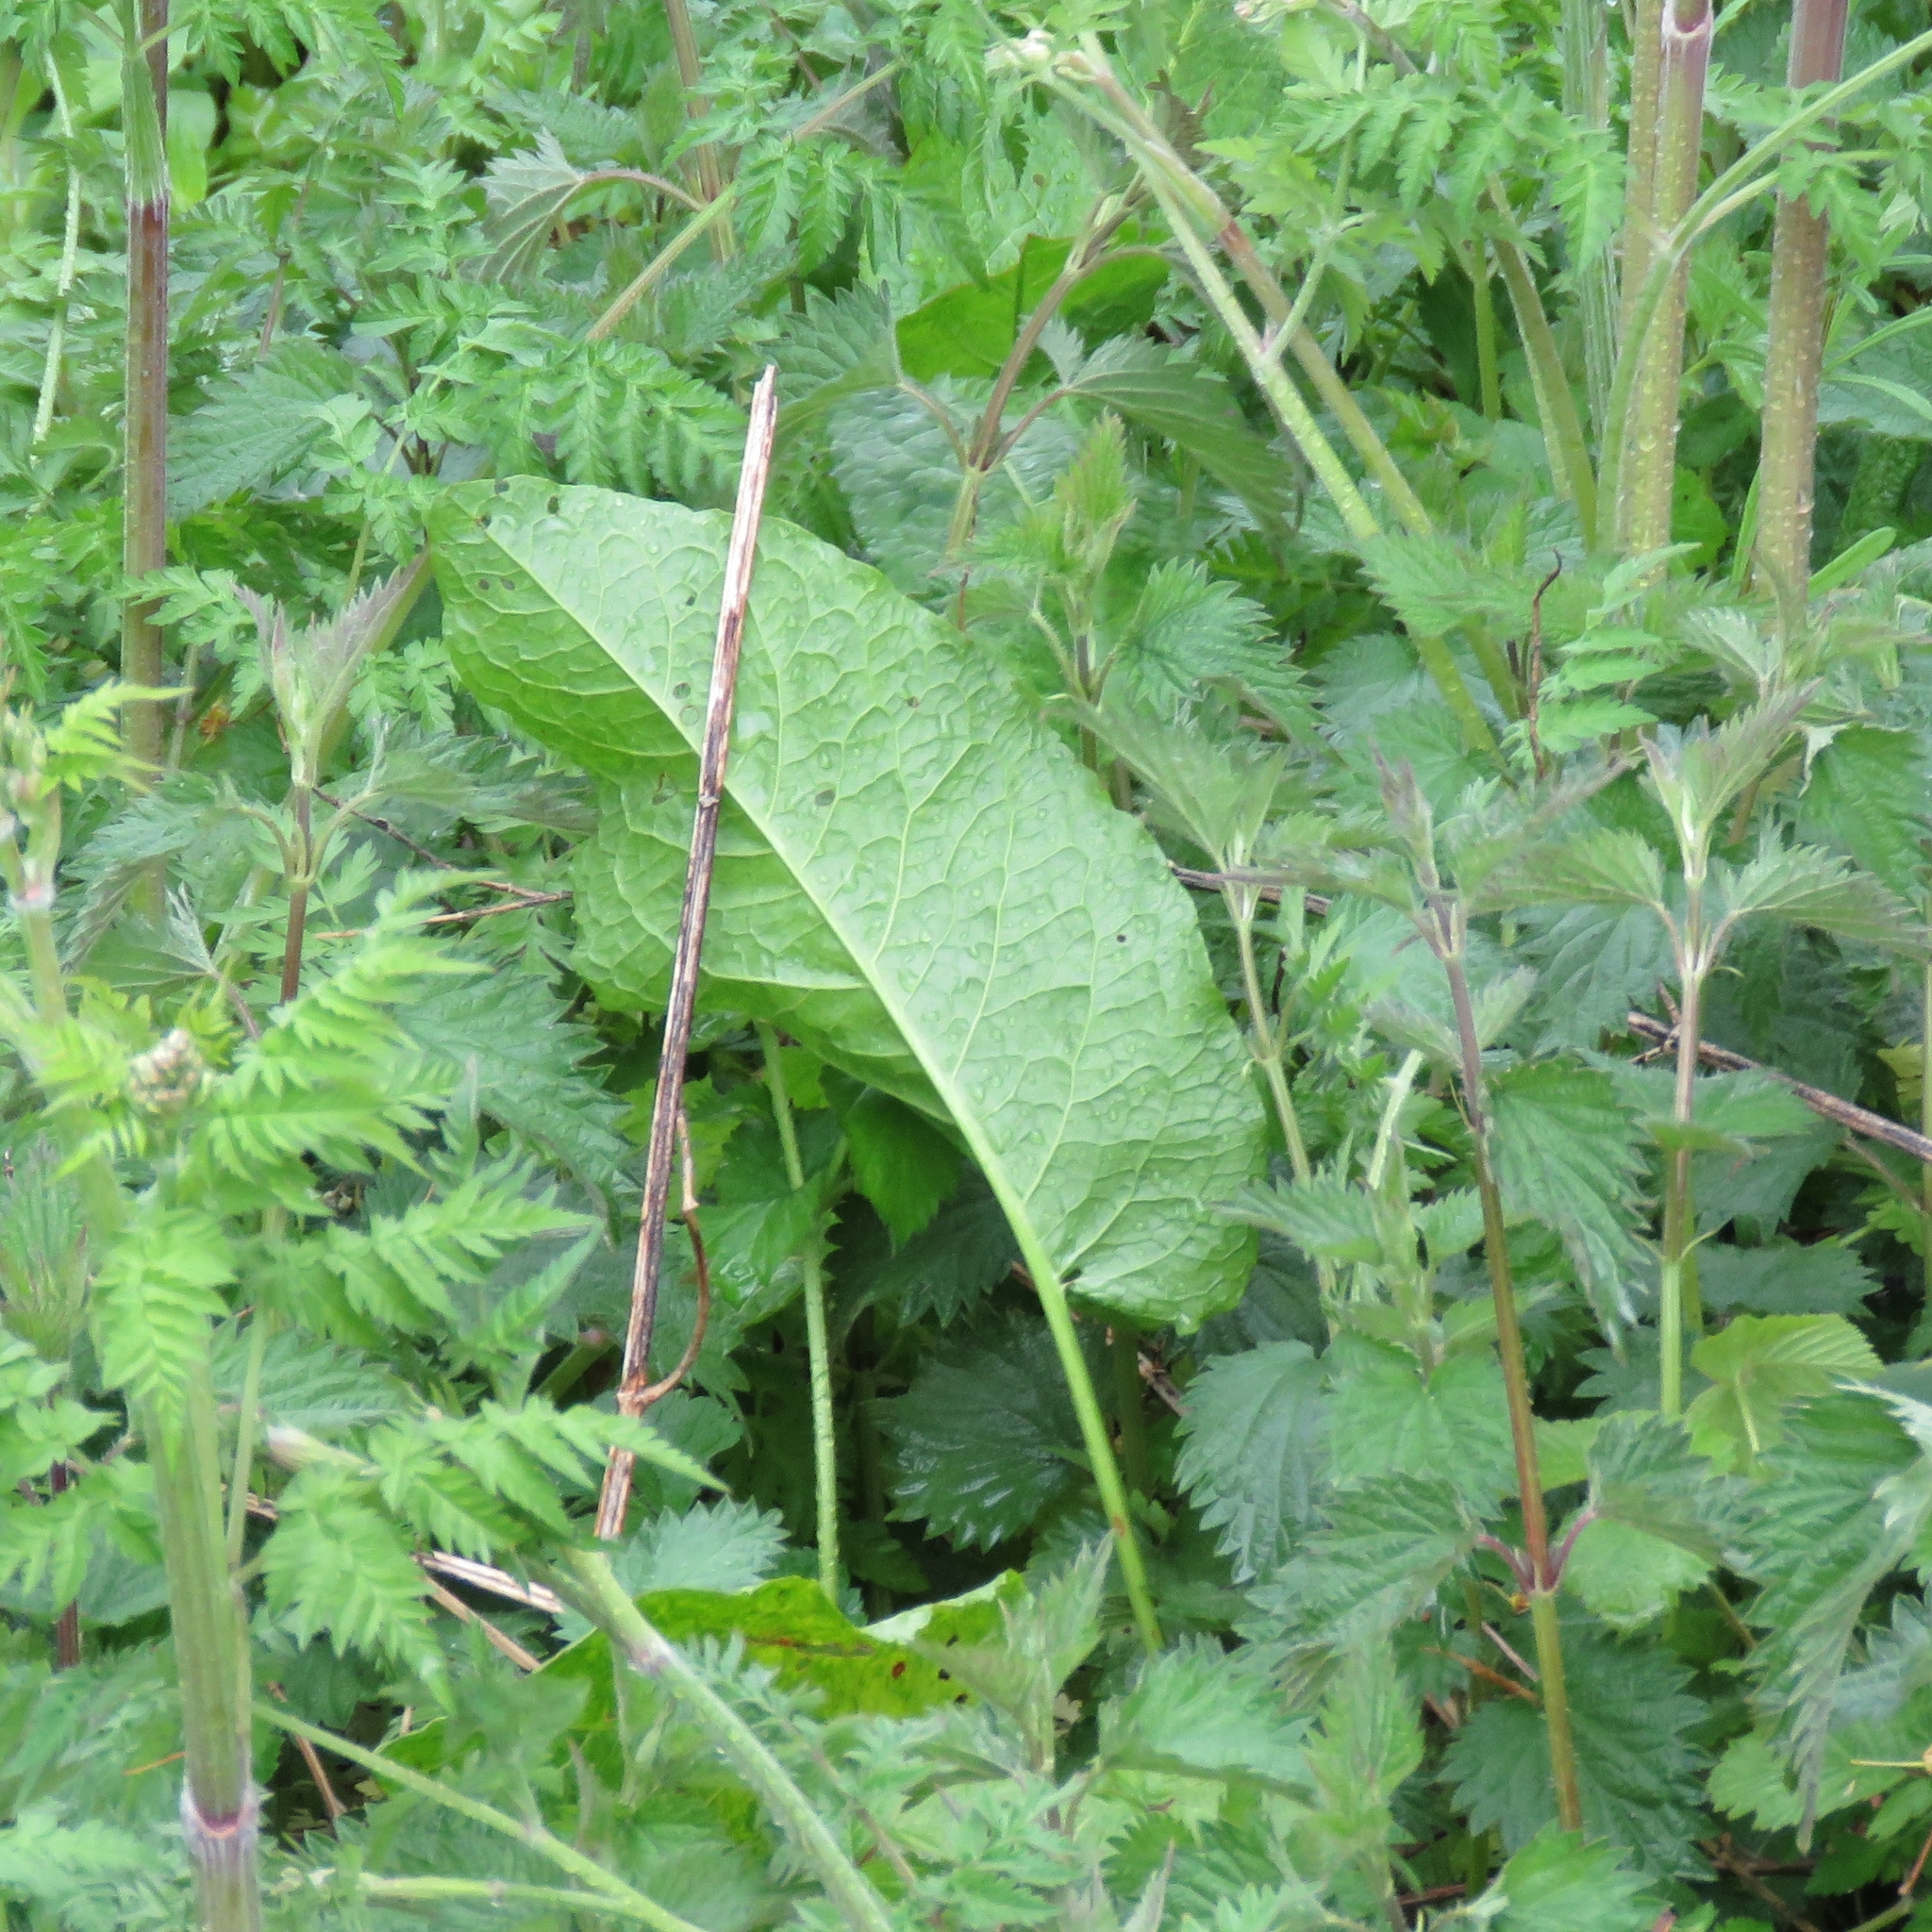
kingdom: Plantae
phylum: Tracheophyta
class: Magnoliopsida
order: Caryophyllales
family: Polygonaceae
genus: Rumex
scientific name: Rumex obtusifolius
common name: Bitter dock
